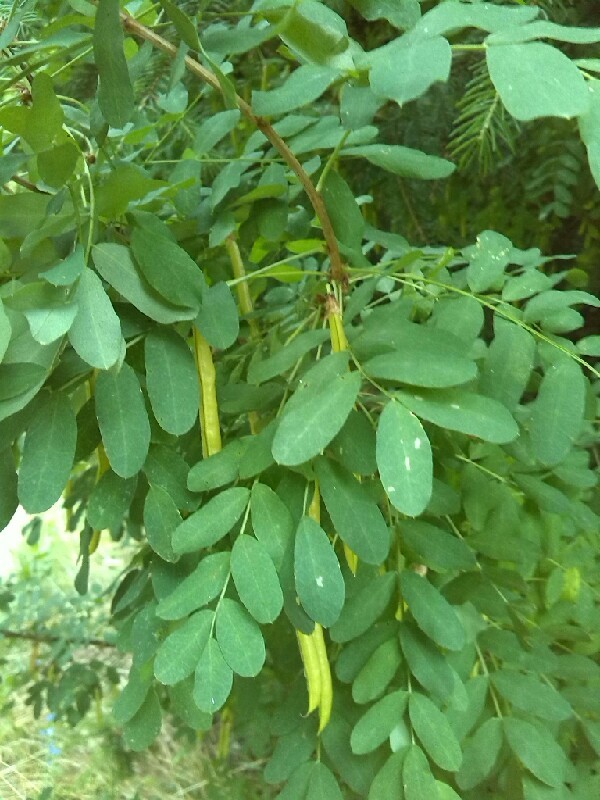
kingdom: Plantae
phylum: Tracheophyta
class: Magnoliopsida
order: Fabales
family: Fabaceae
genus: Caragana
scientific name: Caragana arborescens
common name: Siberian peashrub
